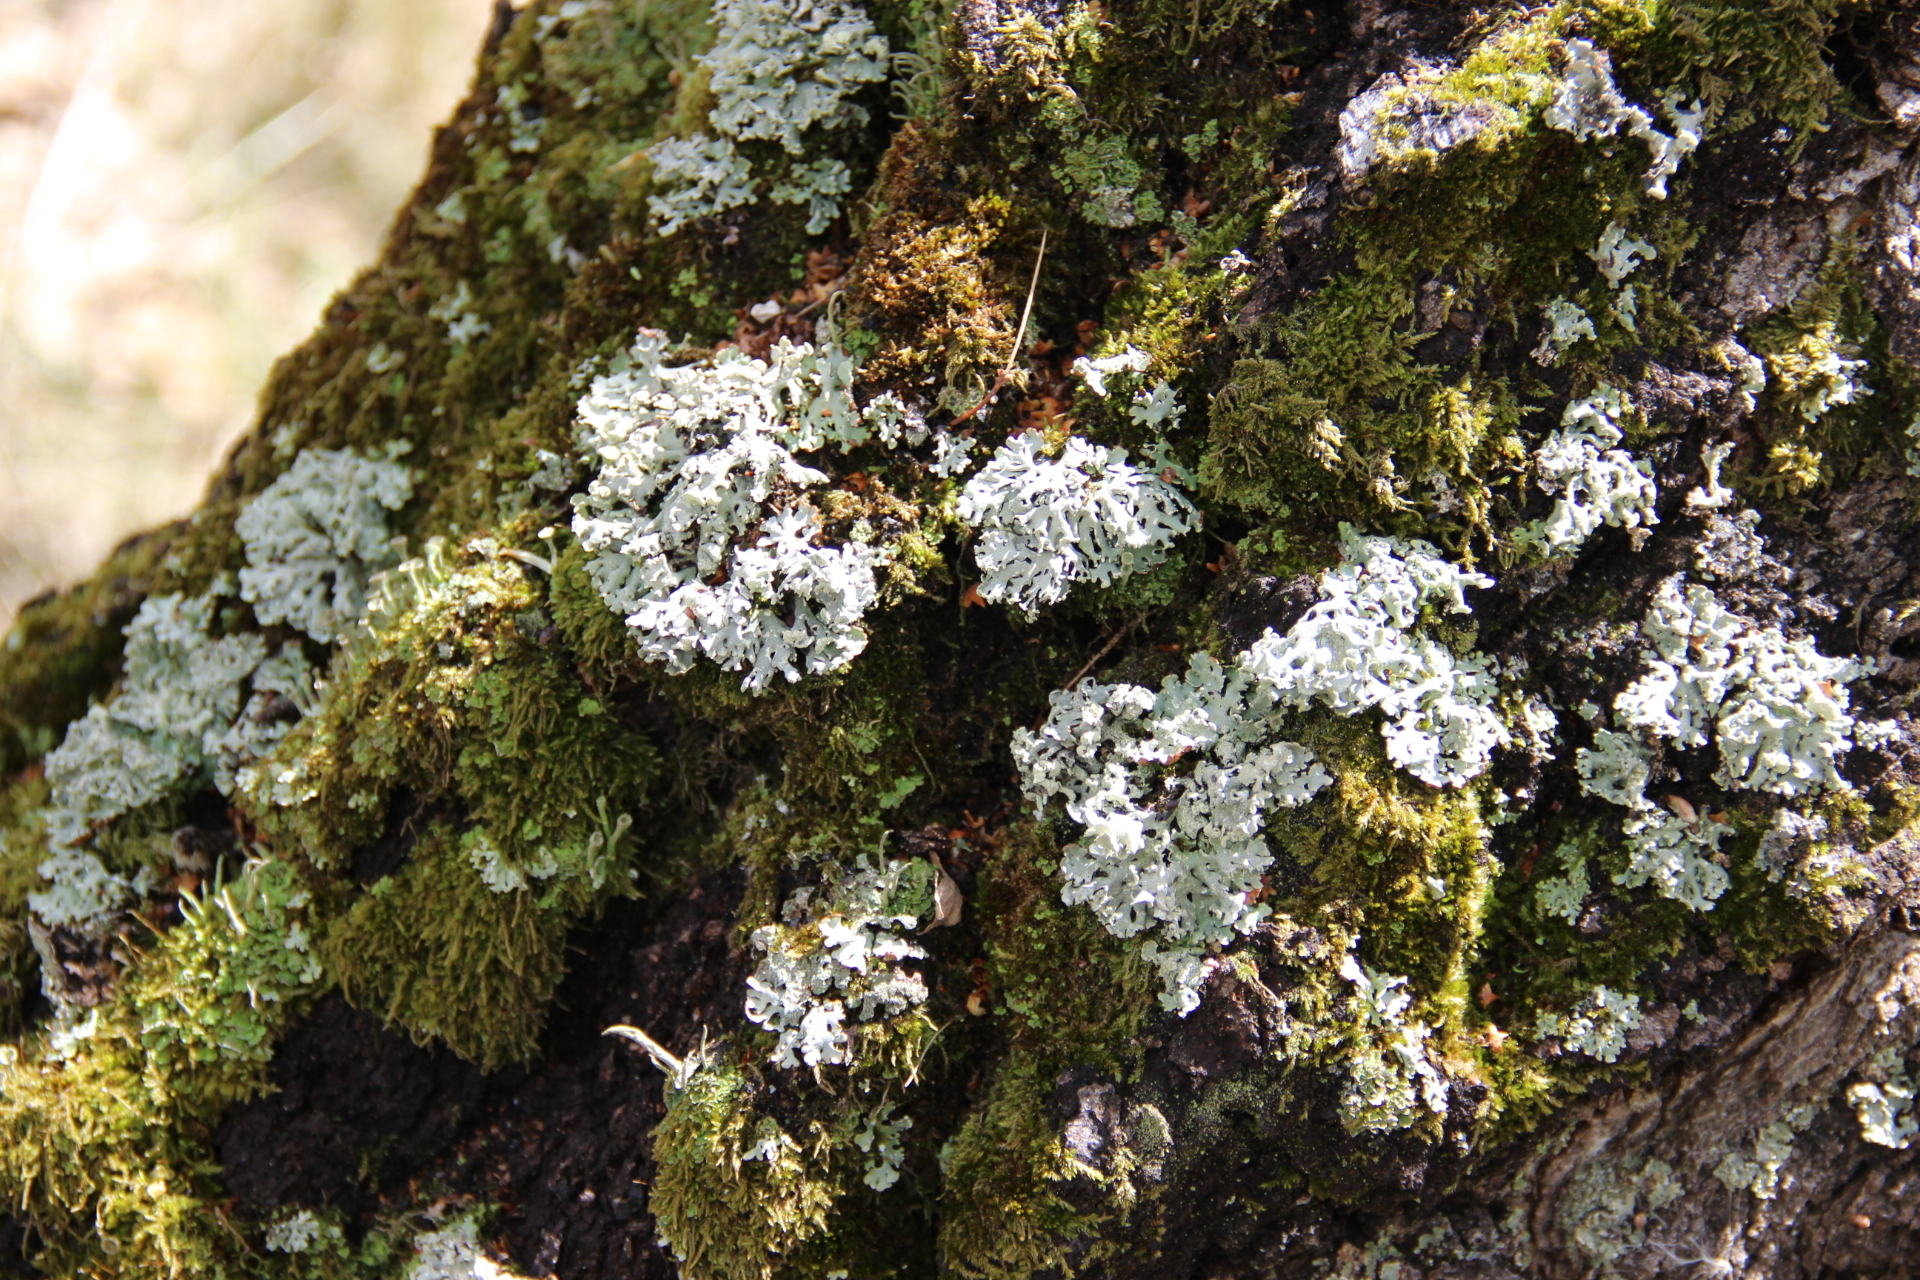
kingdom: Fungi
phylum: Ascomycota
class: Lecanoromycetes
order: Lecanorales
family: Parmeliaceae
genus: Hypogymnia
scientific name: Hypogymnia physodes
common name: Dark crottle
